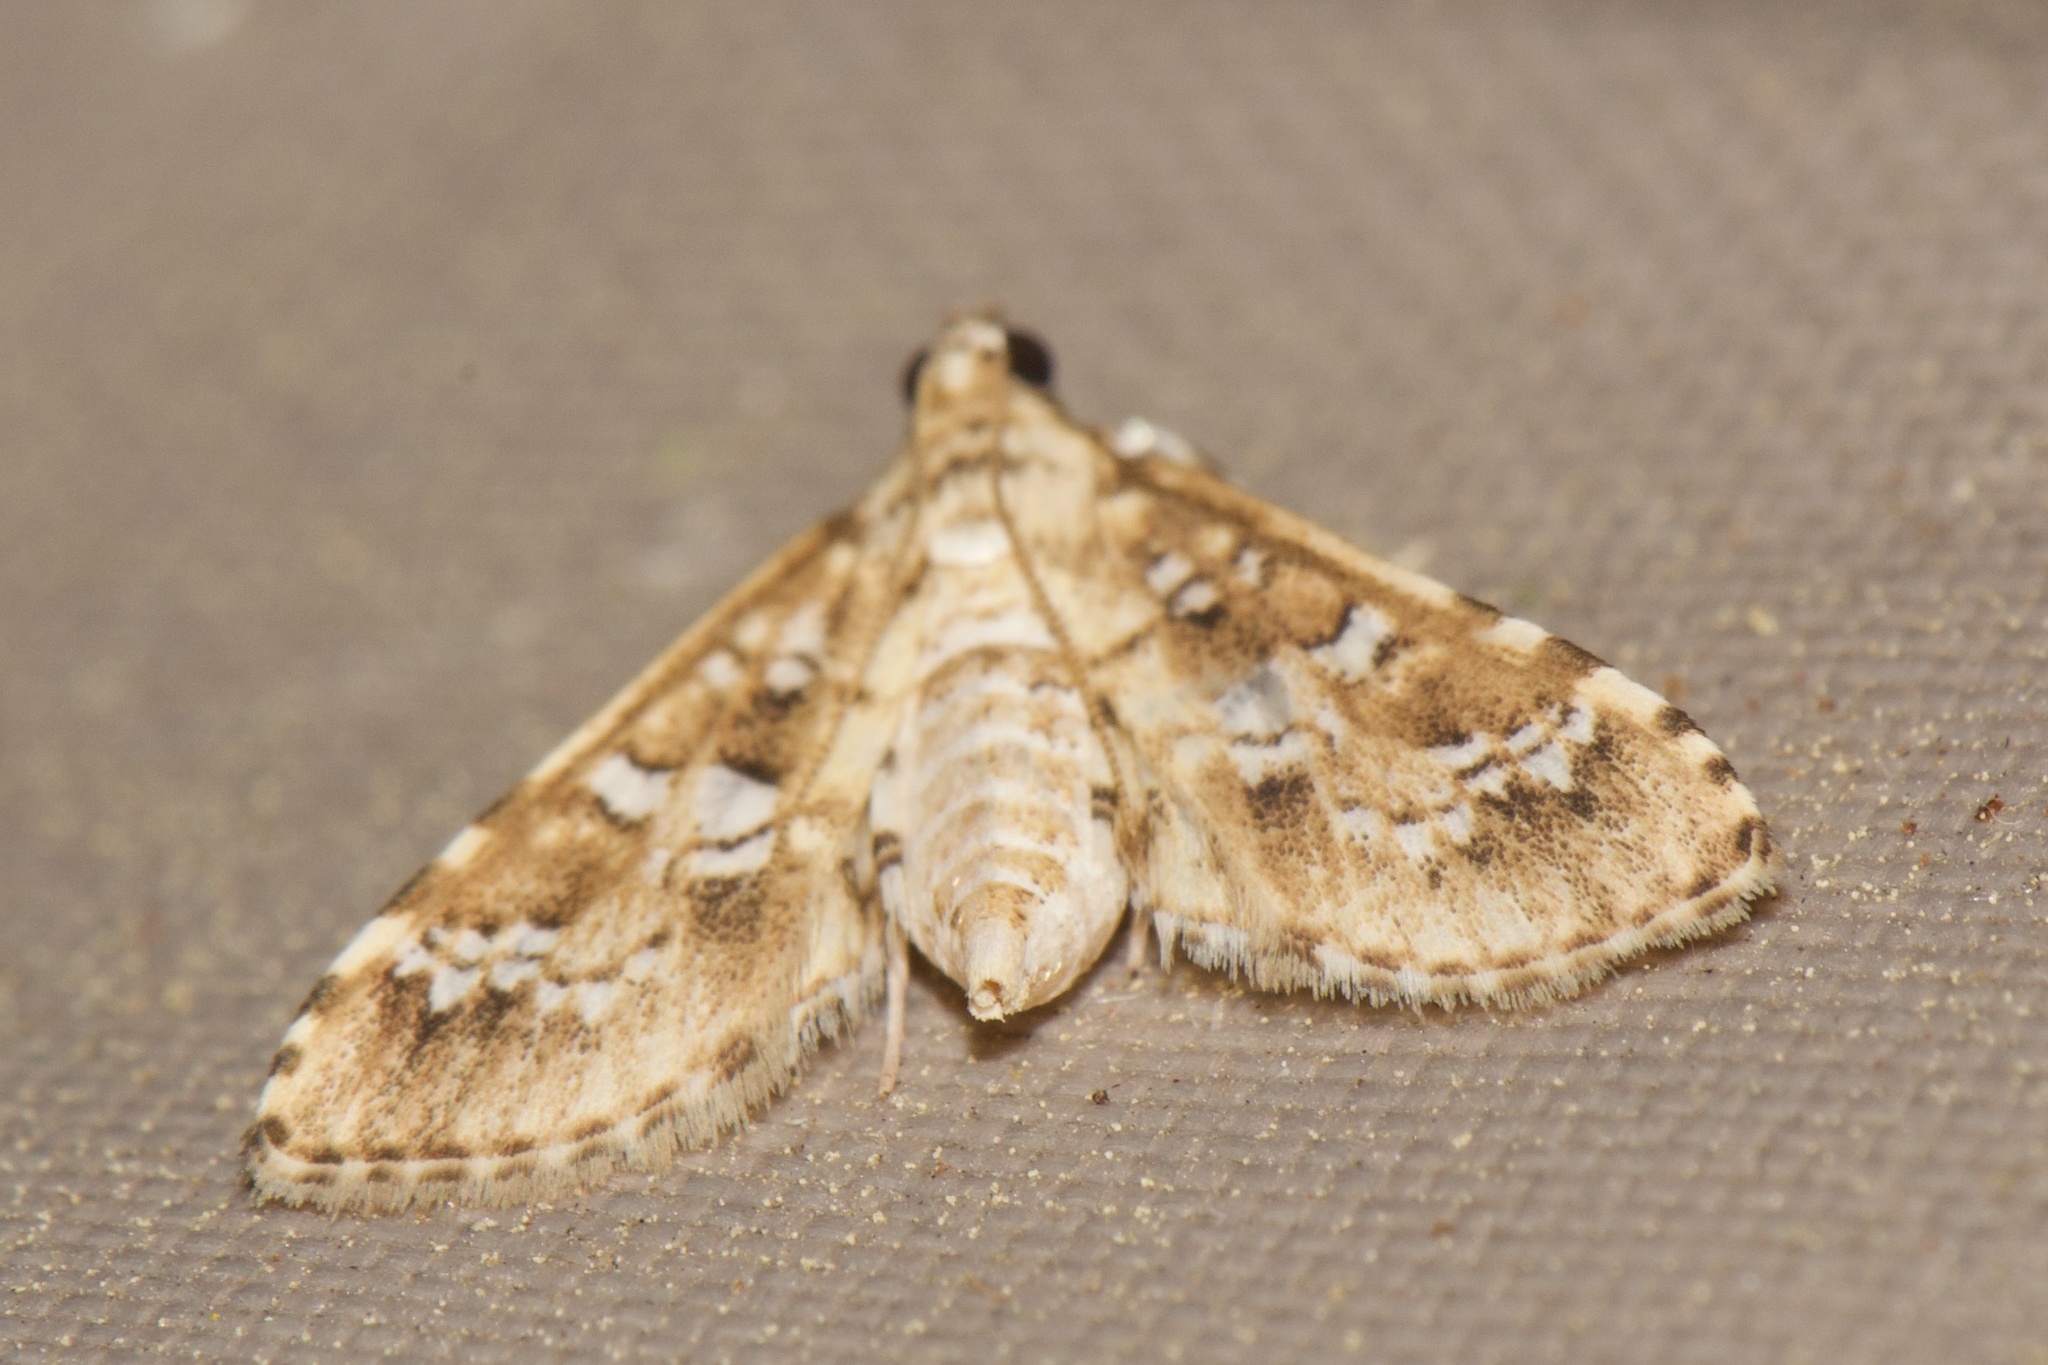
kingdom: Animalia
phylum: Arthropoda
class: Insecta
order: Lepidoptera
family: Crambidae
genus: Samea
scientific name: Samea multiplicalis
